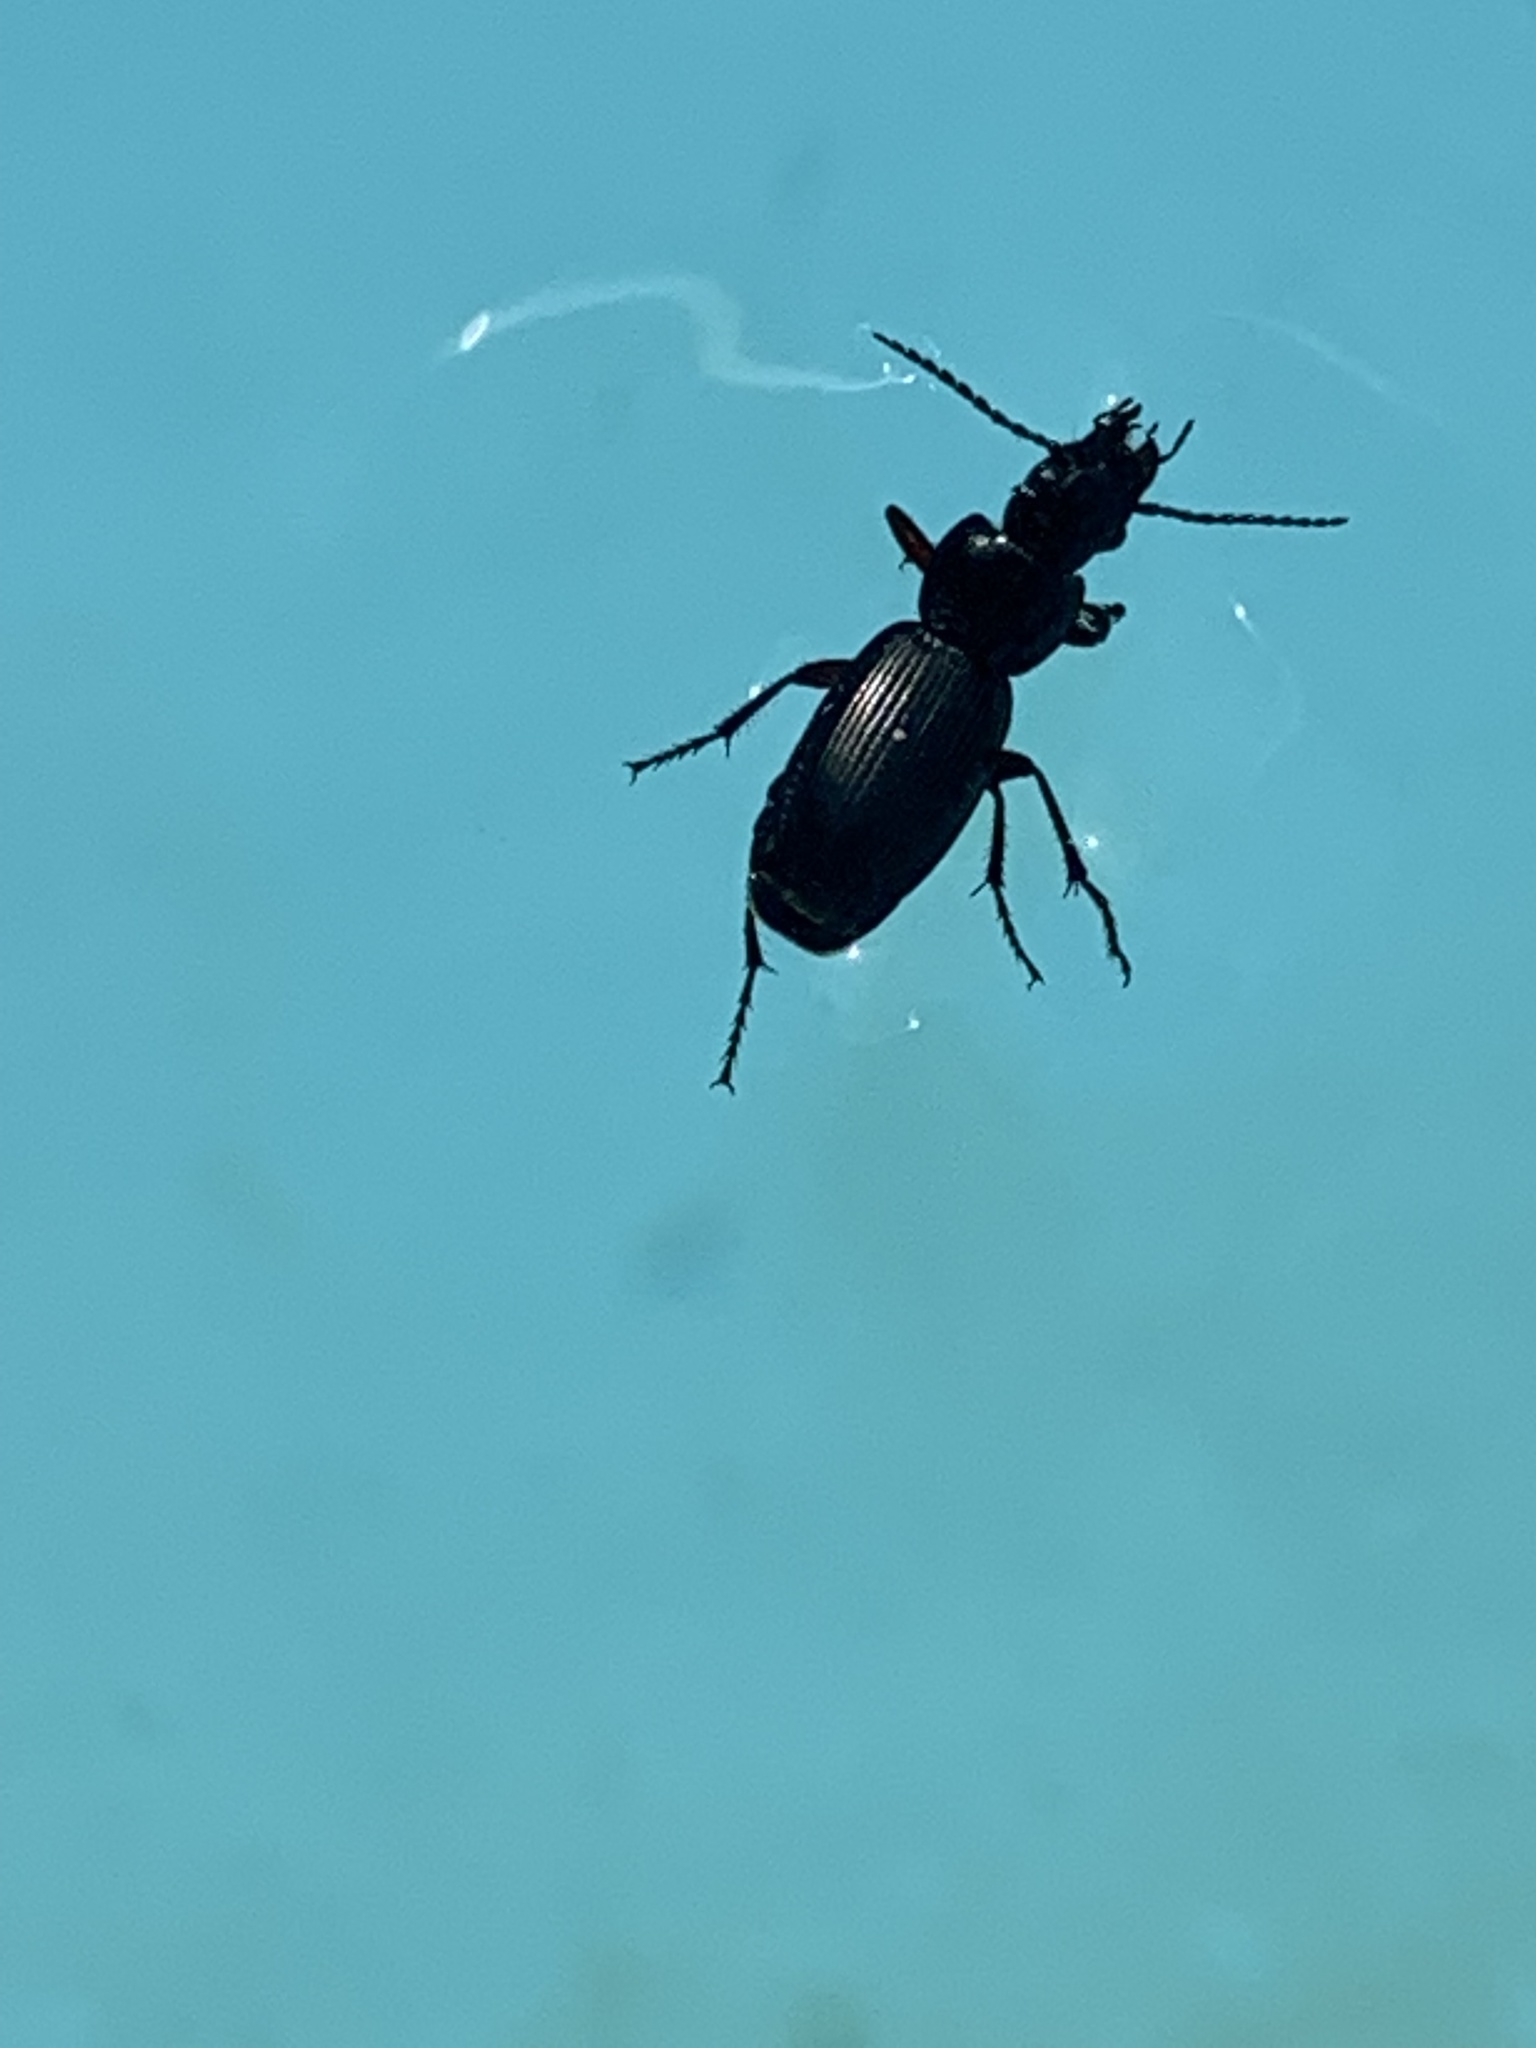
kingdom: Animalia
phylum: Arthropoda
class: Insecta
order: Coleoptera
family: Carabidae
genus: Pterostichus
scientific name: Pterostichus madidus
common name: Black clock
